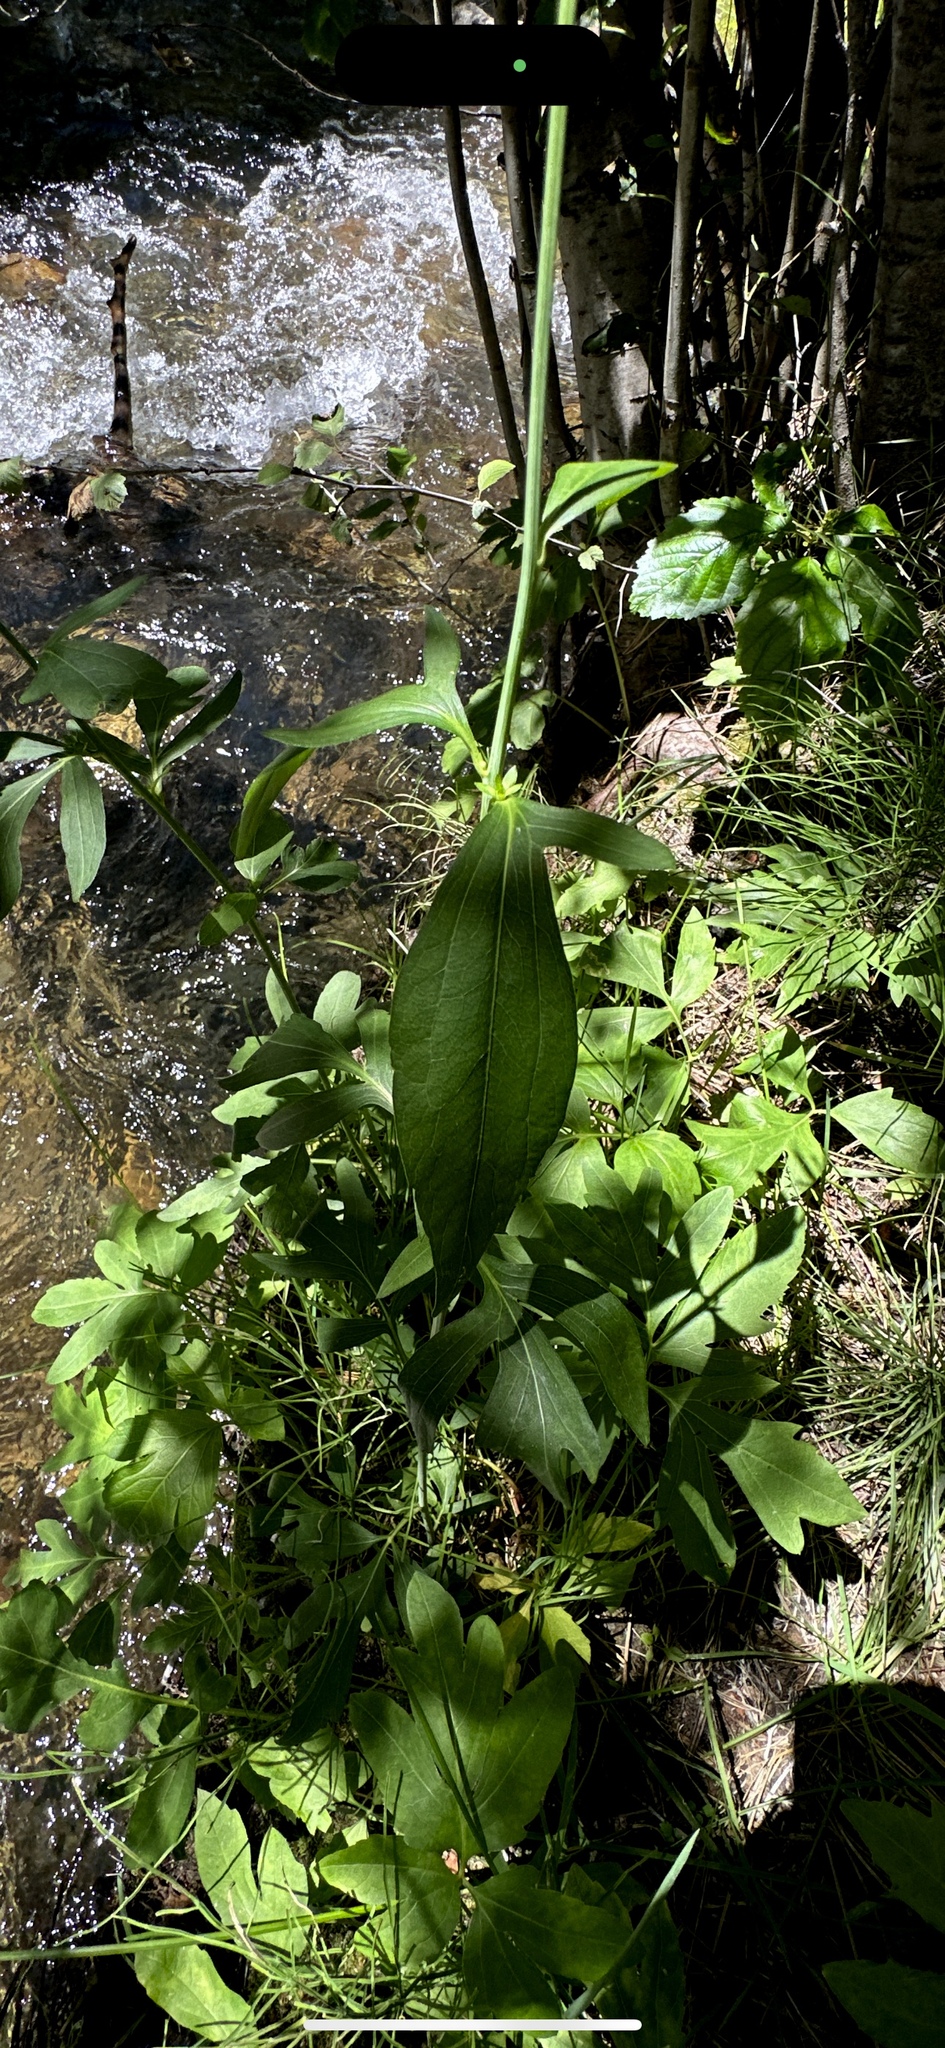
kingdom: Plantae
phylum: Tracheophyta
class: Magnoliopsida
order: Asterales
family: Asteraceae
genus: Rudbeckia
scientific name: Rudbeckia laciniata
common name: Coneflower
